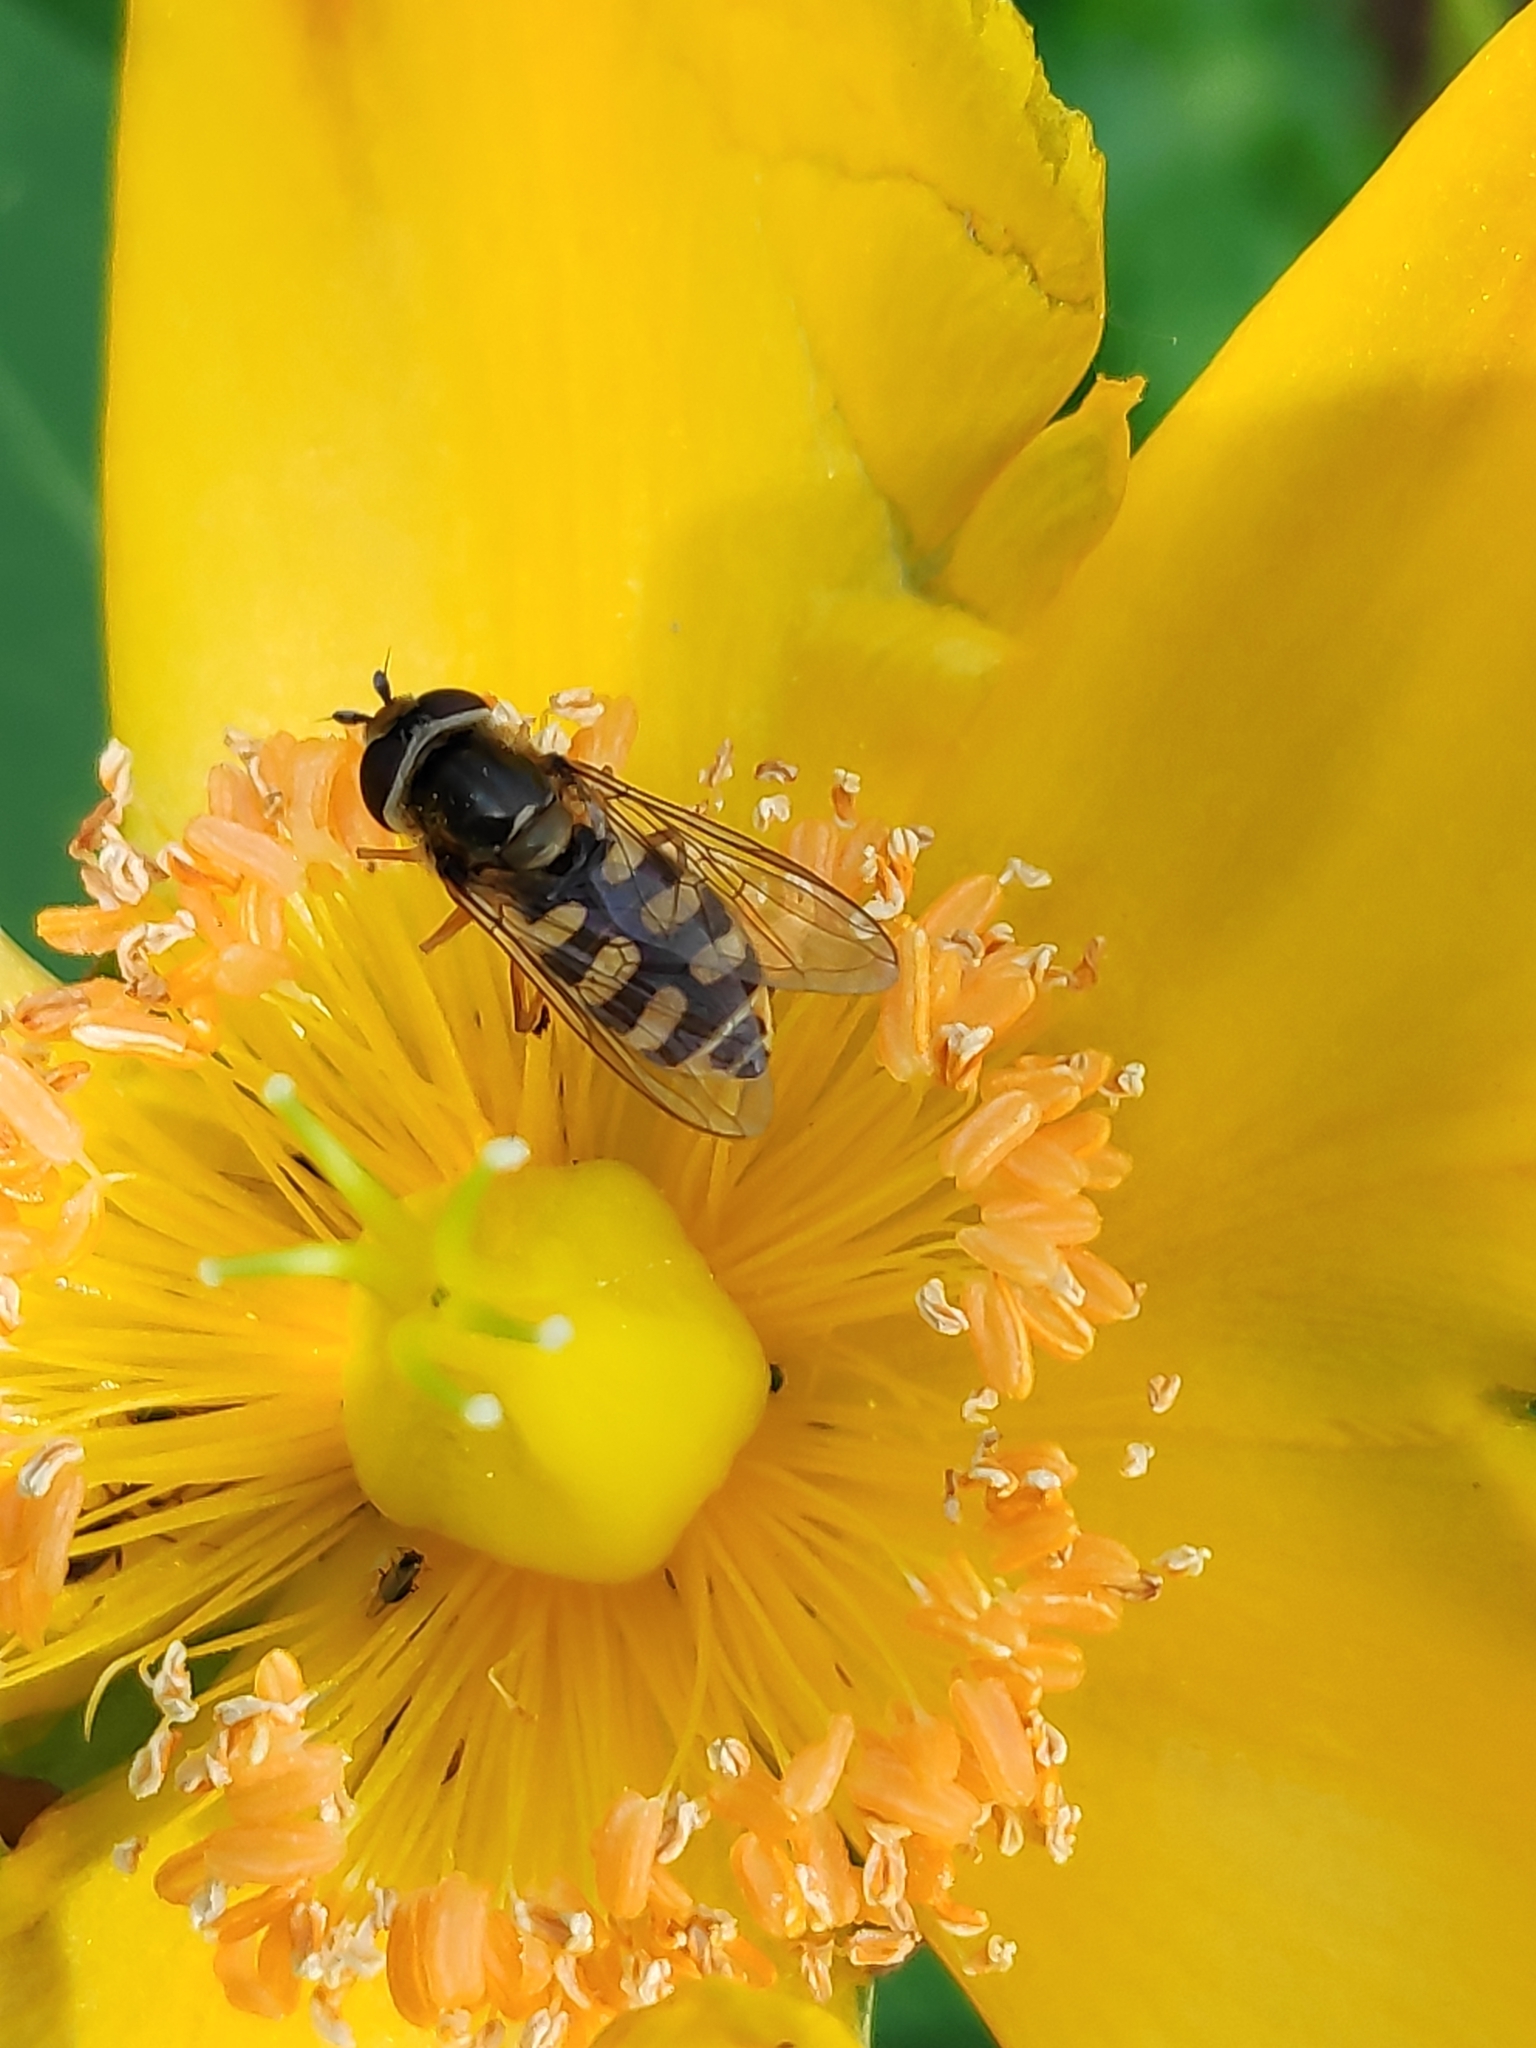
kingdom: Animalia
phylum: Arthropoda
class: Insecta
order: Diptera
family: Syrphidae
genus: Eupeodes
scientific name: Eupeodes corollae
